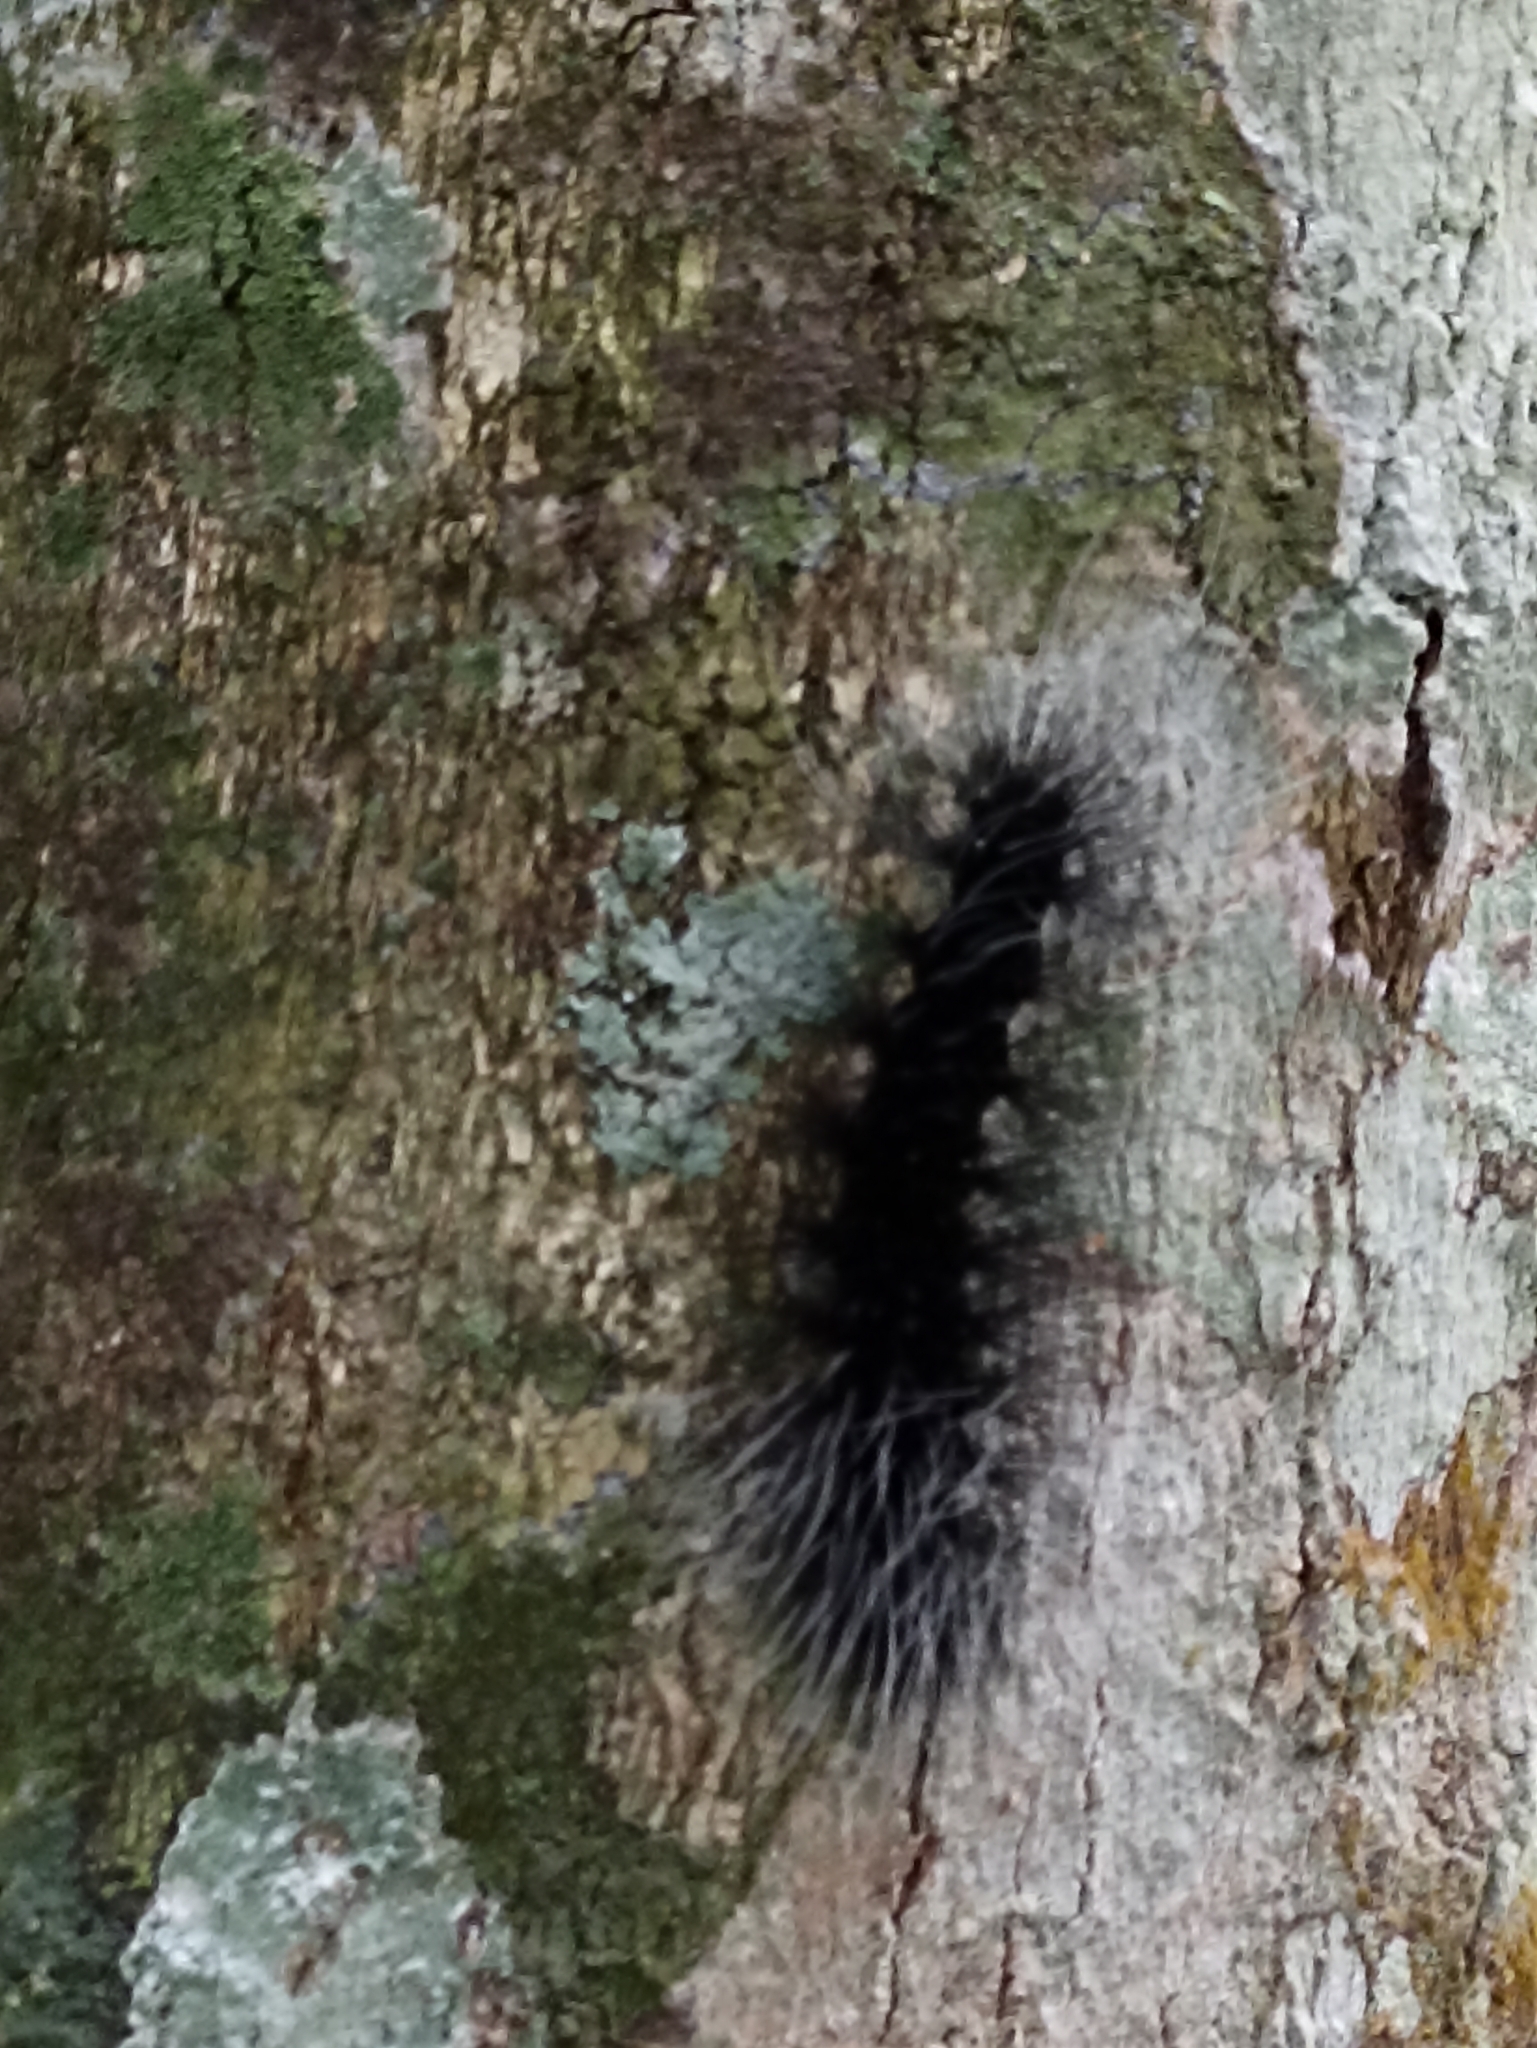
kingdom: Animalia
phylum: Arthropoda
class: Insecta
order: Lepidoptera
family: Erebidae
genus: Apistosia
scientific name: Apistosia judas
